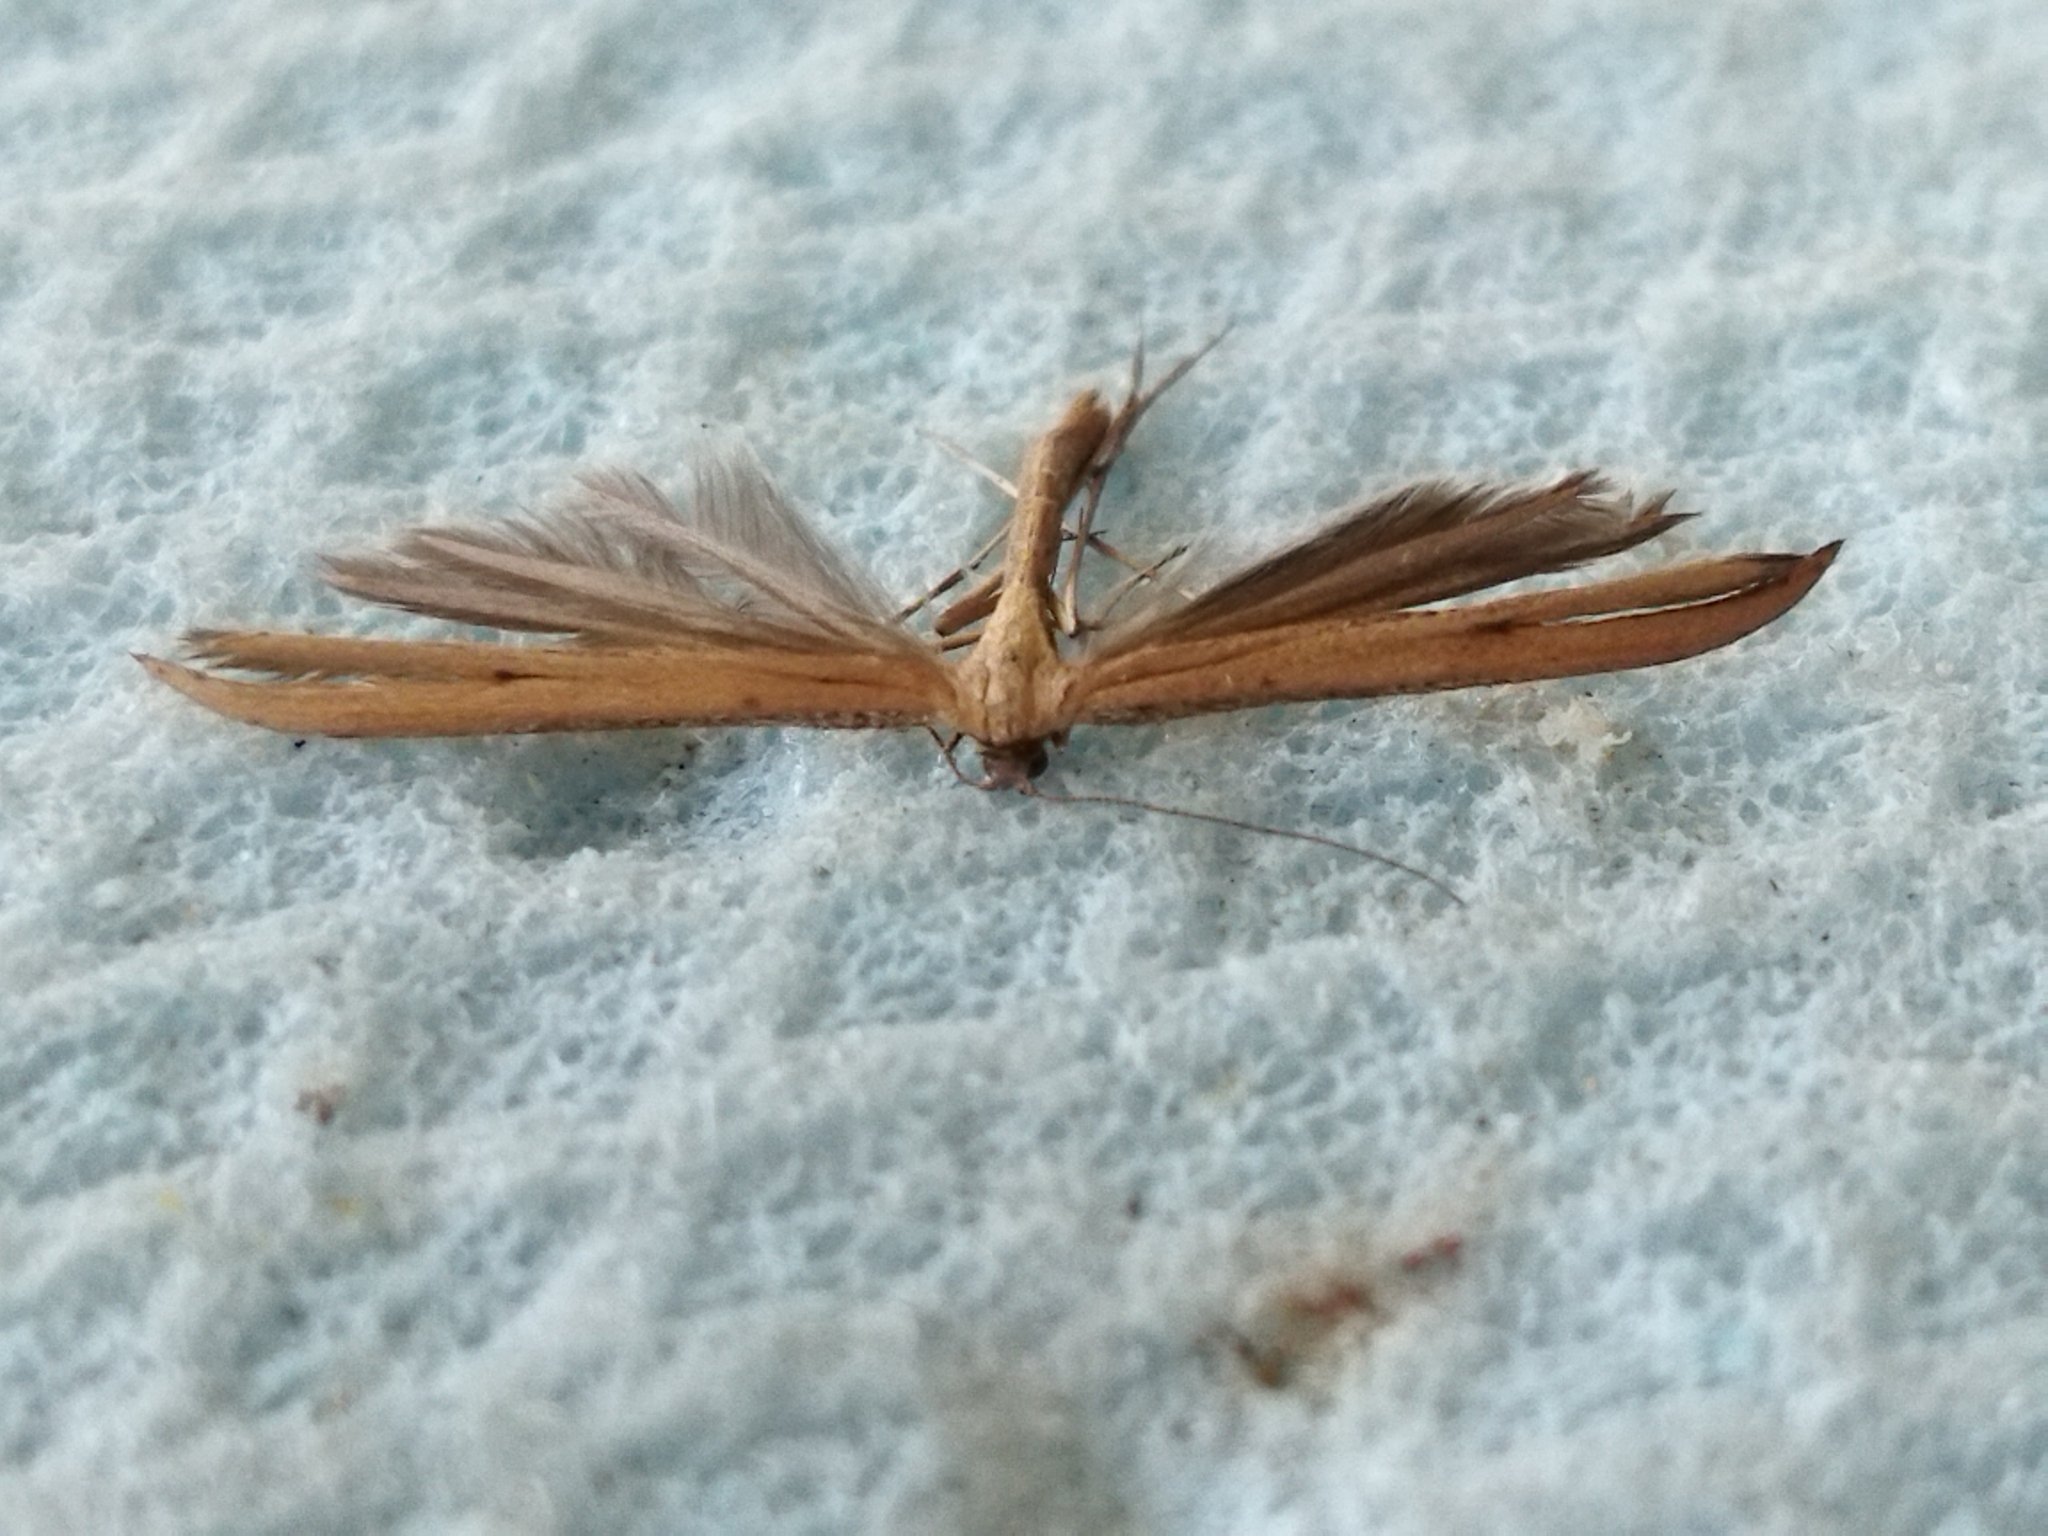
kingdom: Animalia
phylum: Arthropoda
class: Insecta
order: Lepidoptera
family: Pterophoridae
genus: Emmelina
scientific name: Emmelina monodactyla
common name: Common plume
